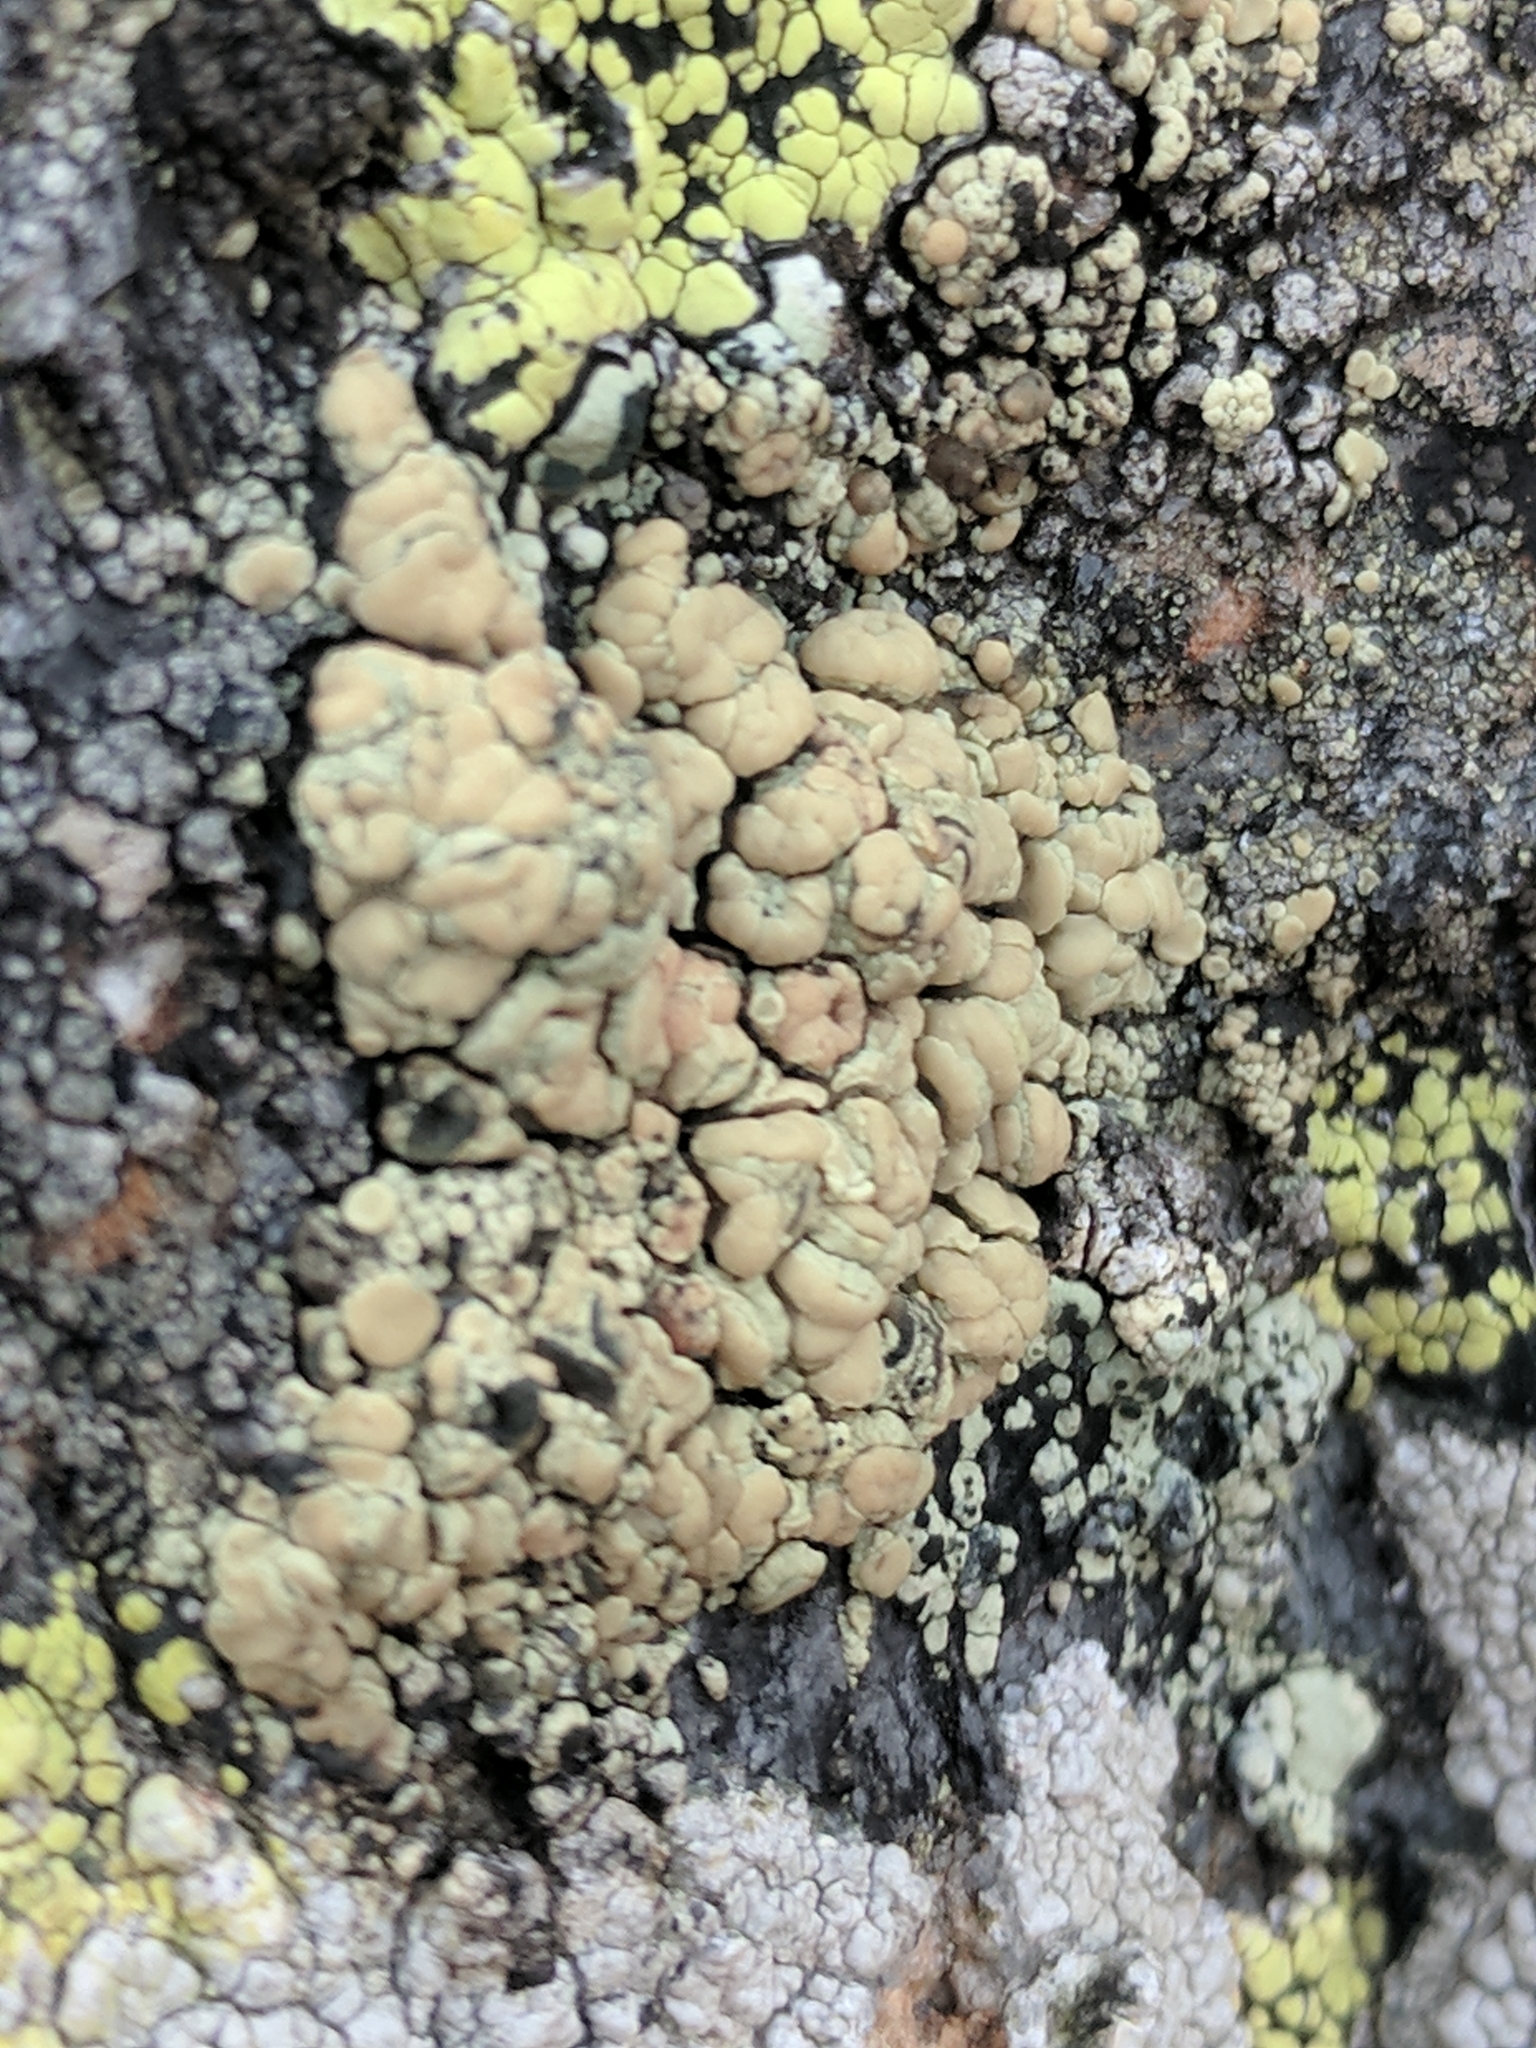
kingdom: Fungi
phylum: Ascomycota
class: Lecanoromycetes
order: Lecanorales
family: Lecanoraceae
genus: Lecanora
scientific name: Lecanora polytropa
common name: Granite-speck rim lichen
